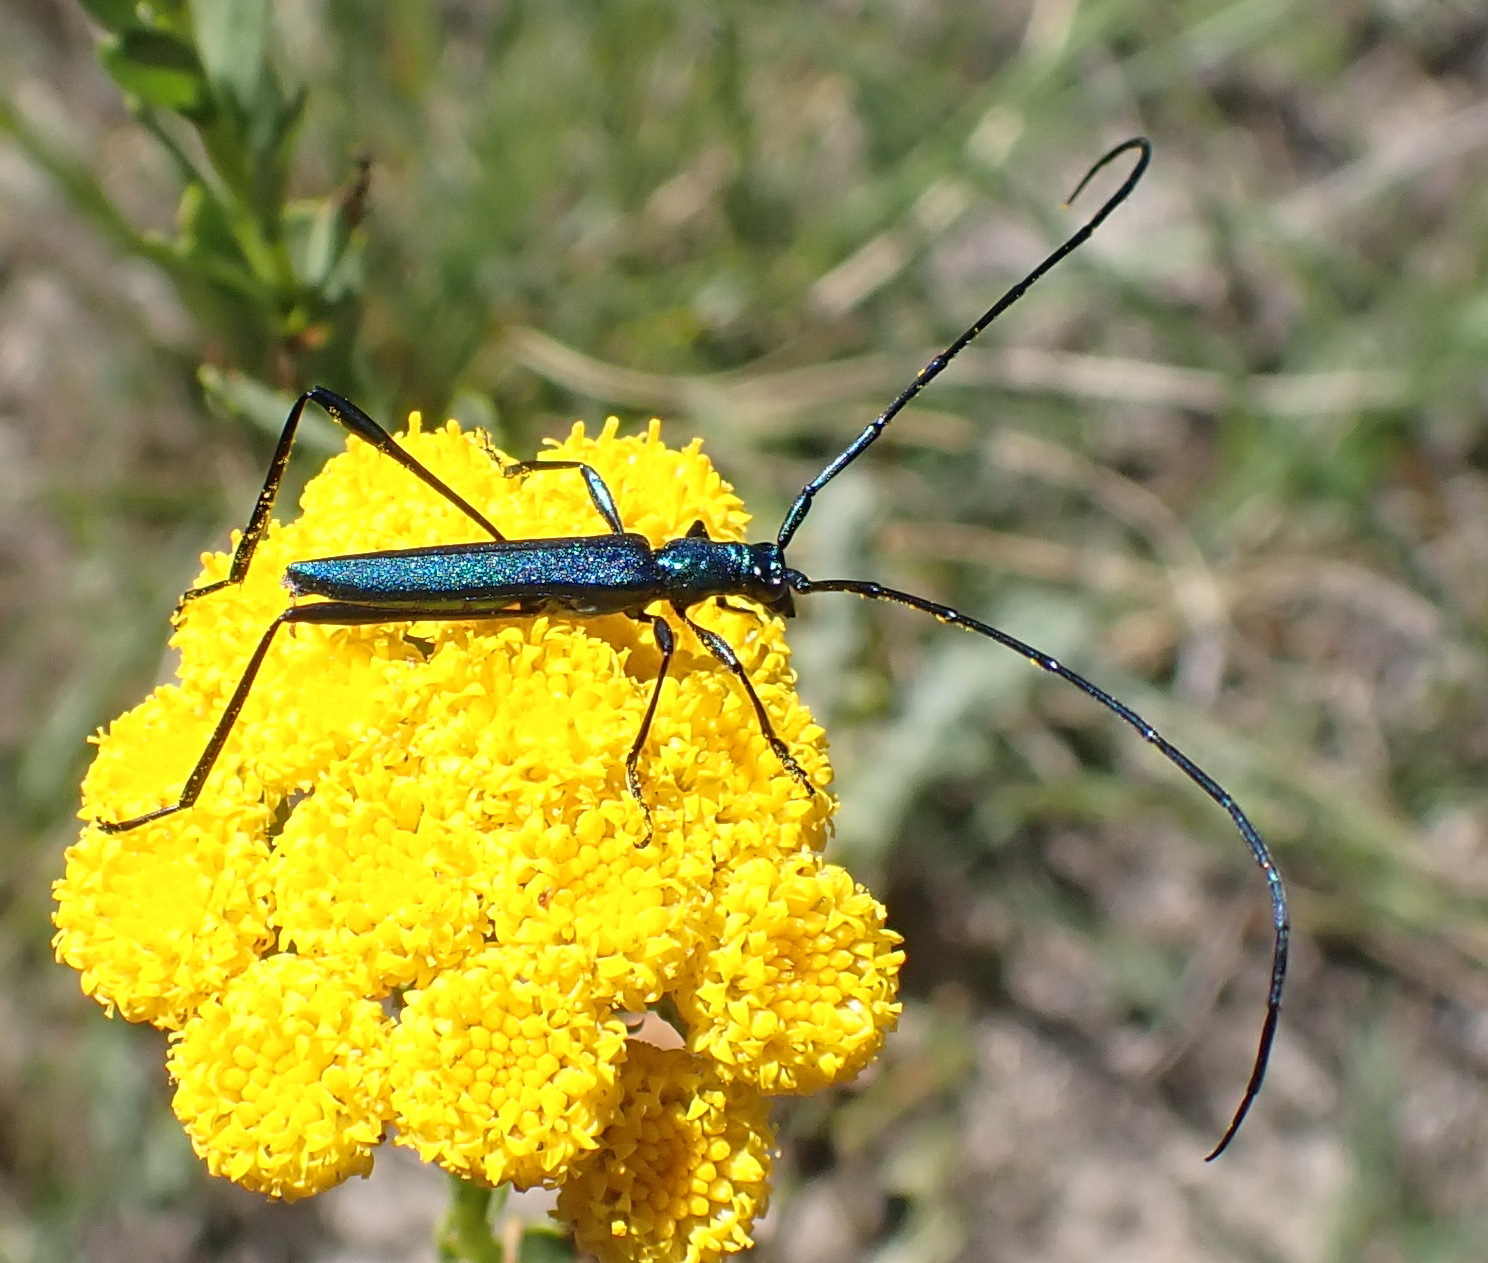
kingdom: Animalia
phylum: Arthropoda
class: Insecta
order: Coleoptera
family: Cerambycidae
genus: Promeces
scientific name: Promeces longipes
